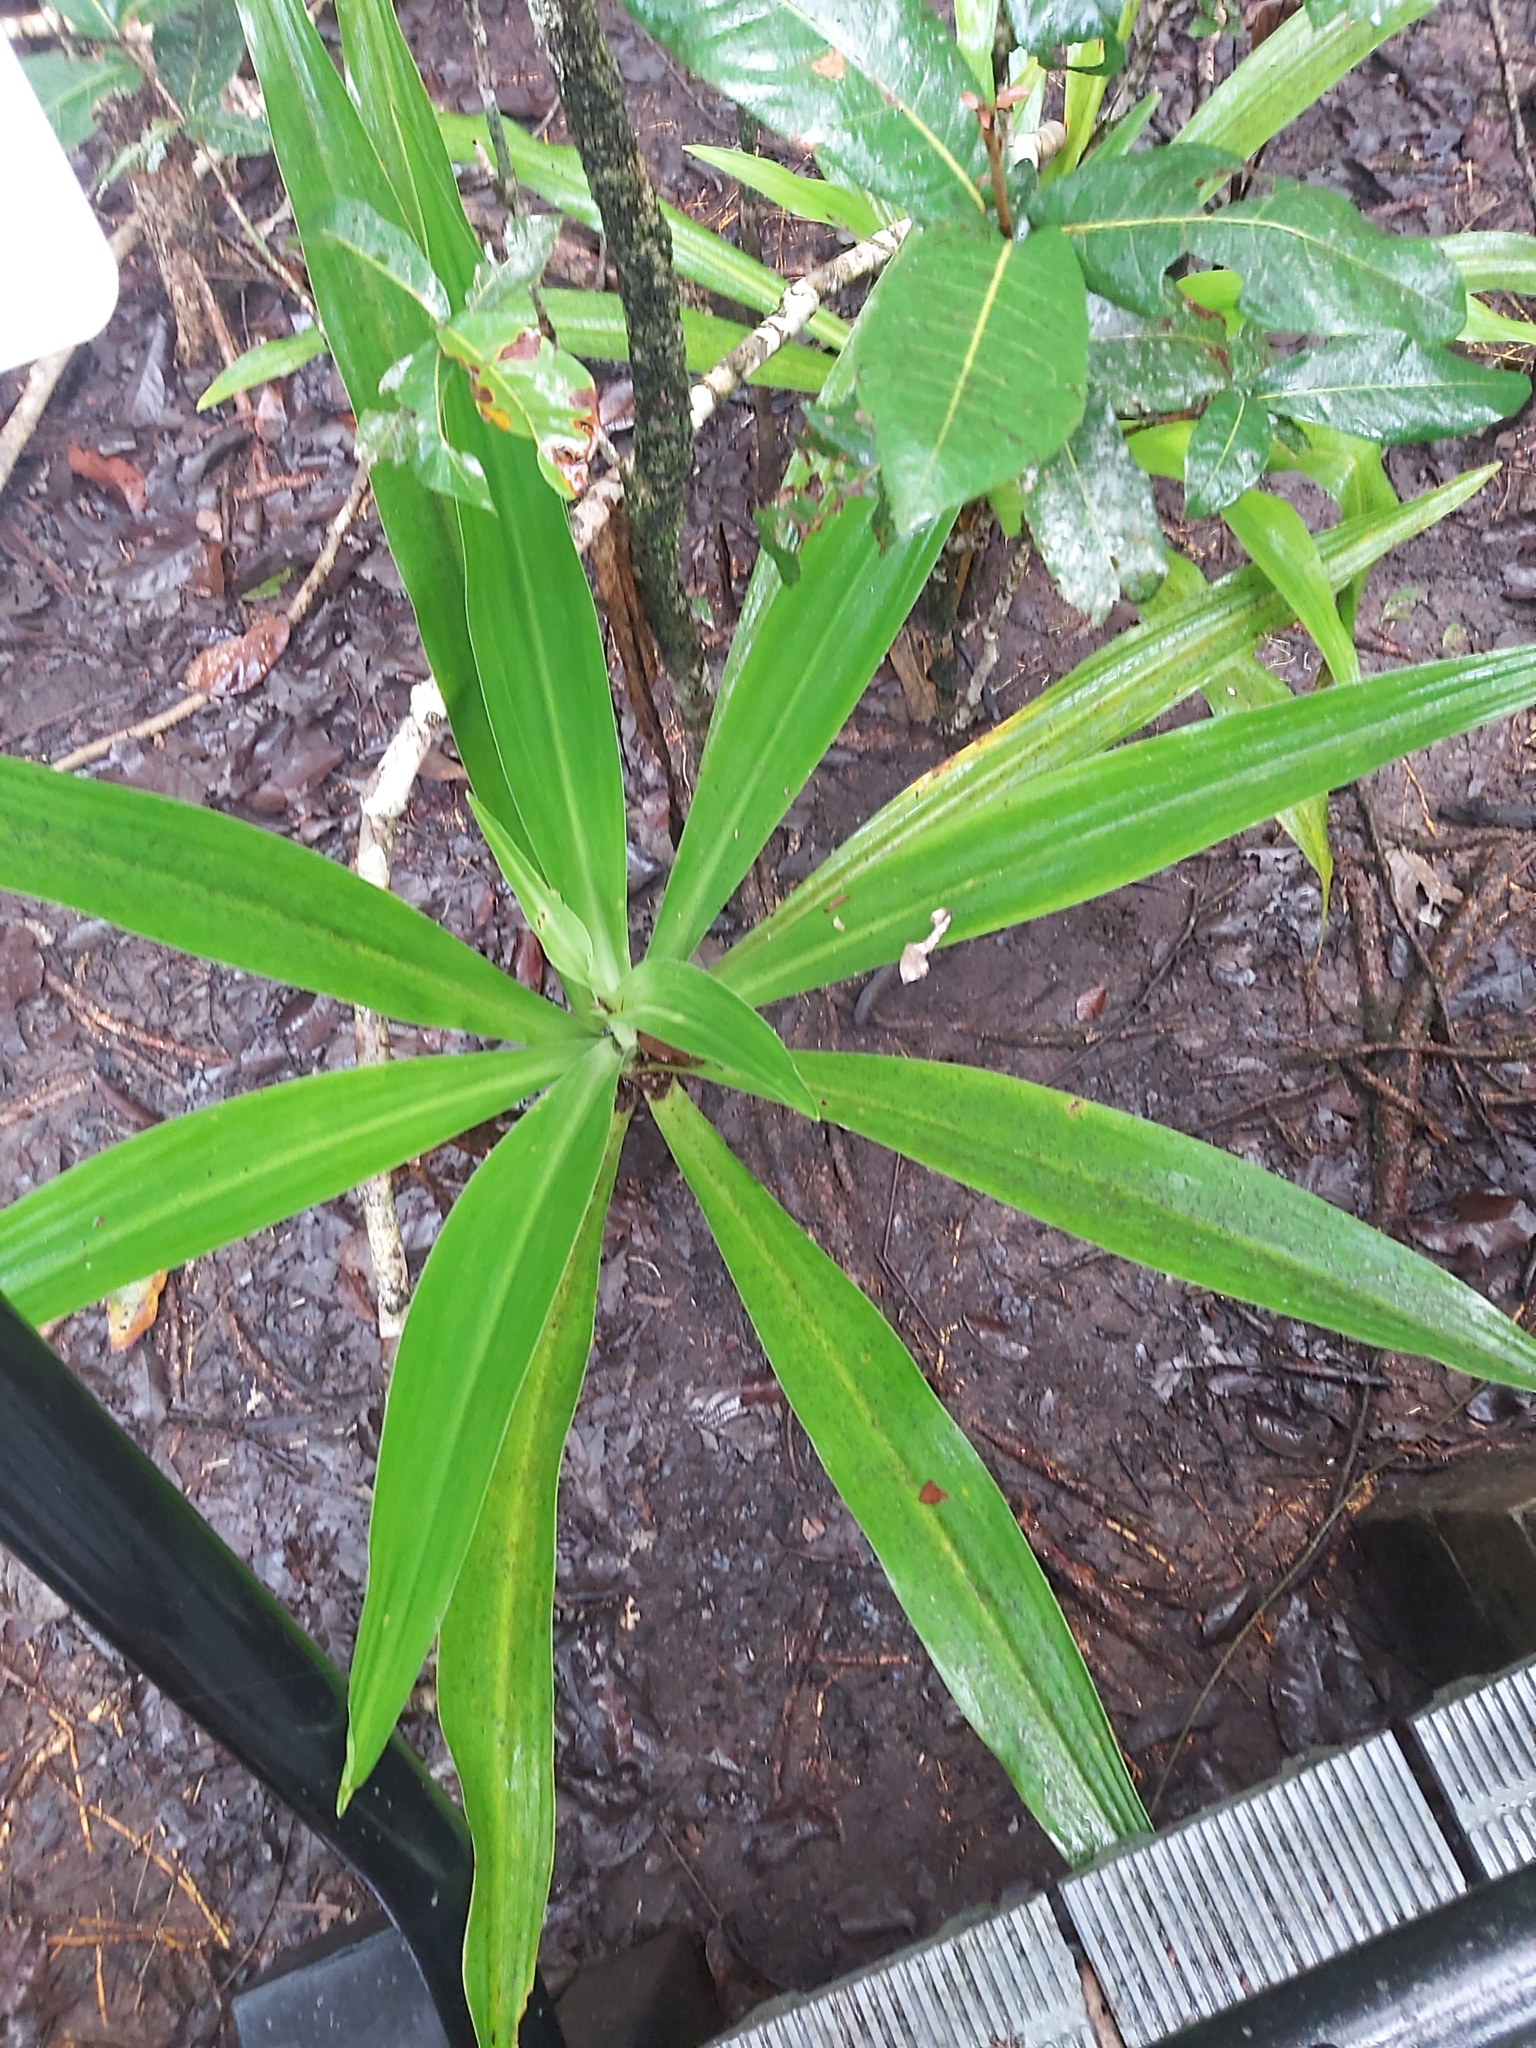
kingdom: Plantae
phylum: Tracheophyta
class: Liliopsida
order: Asparagales
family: Amaryllidaceae
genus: Crinum
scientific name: Crinum pedunculatum
